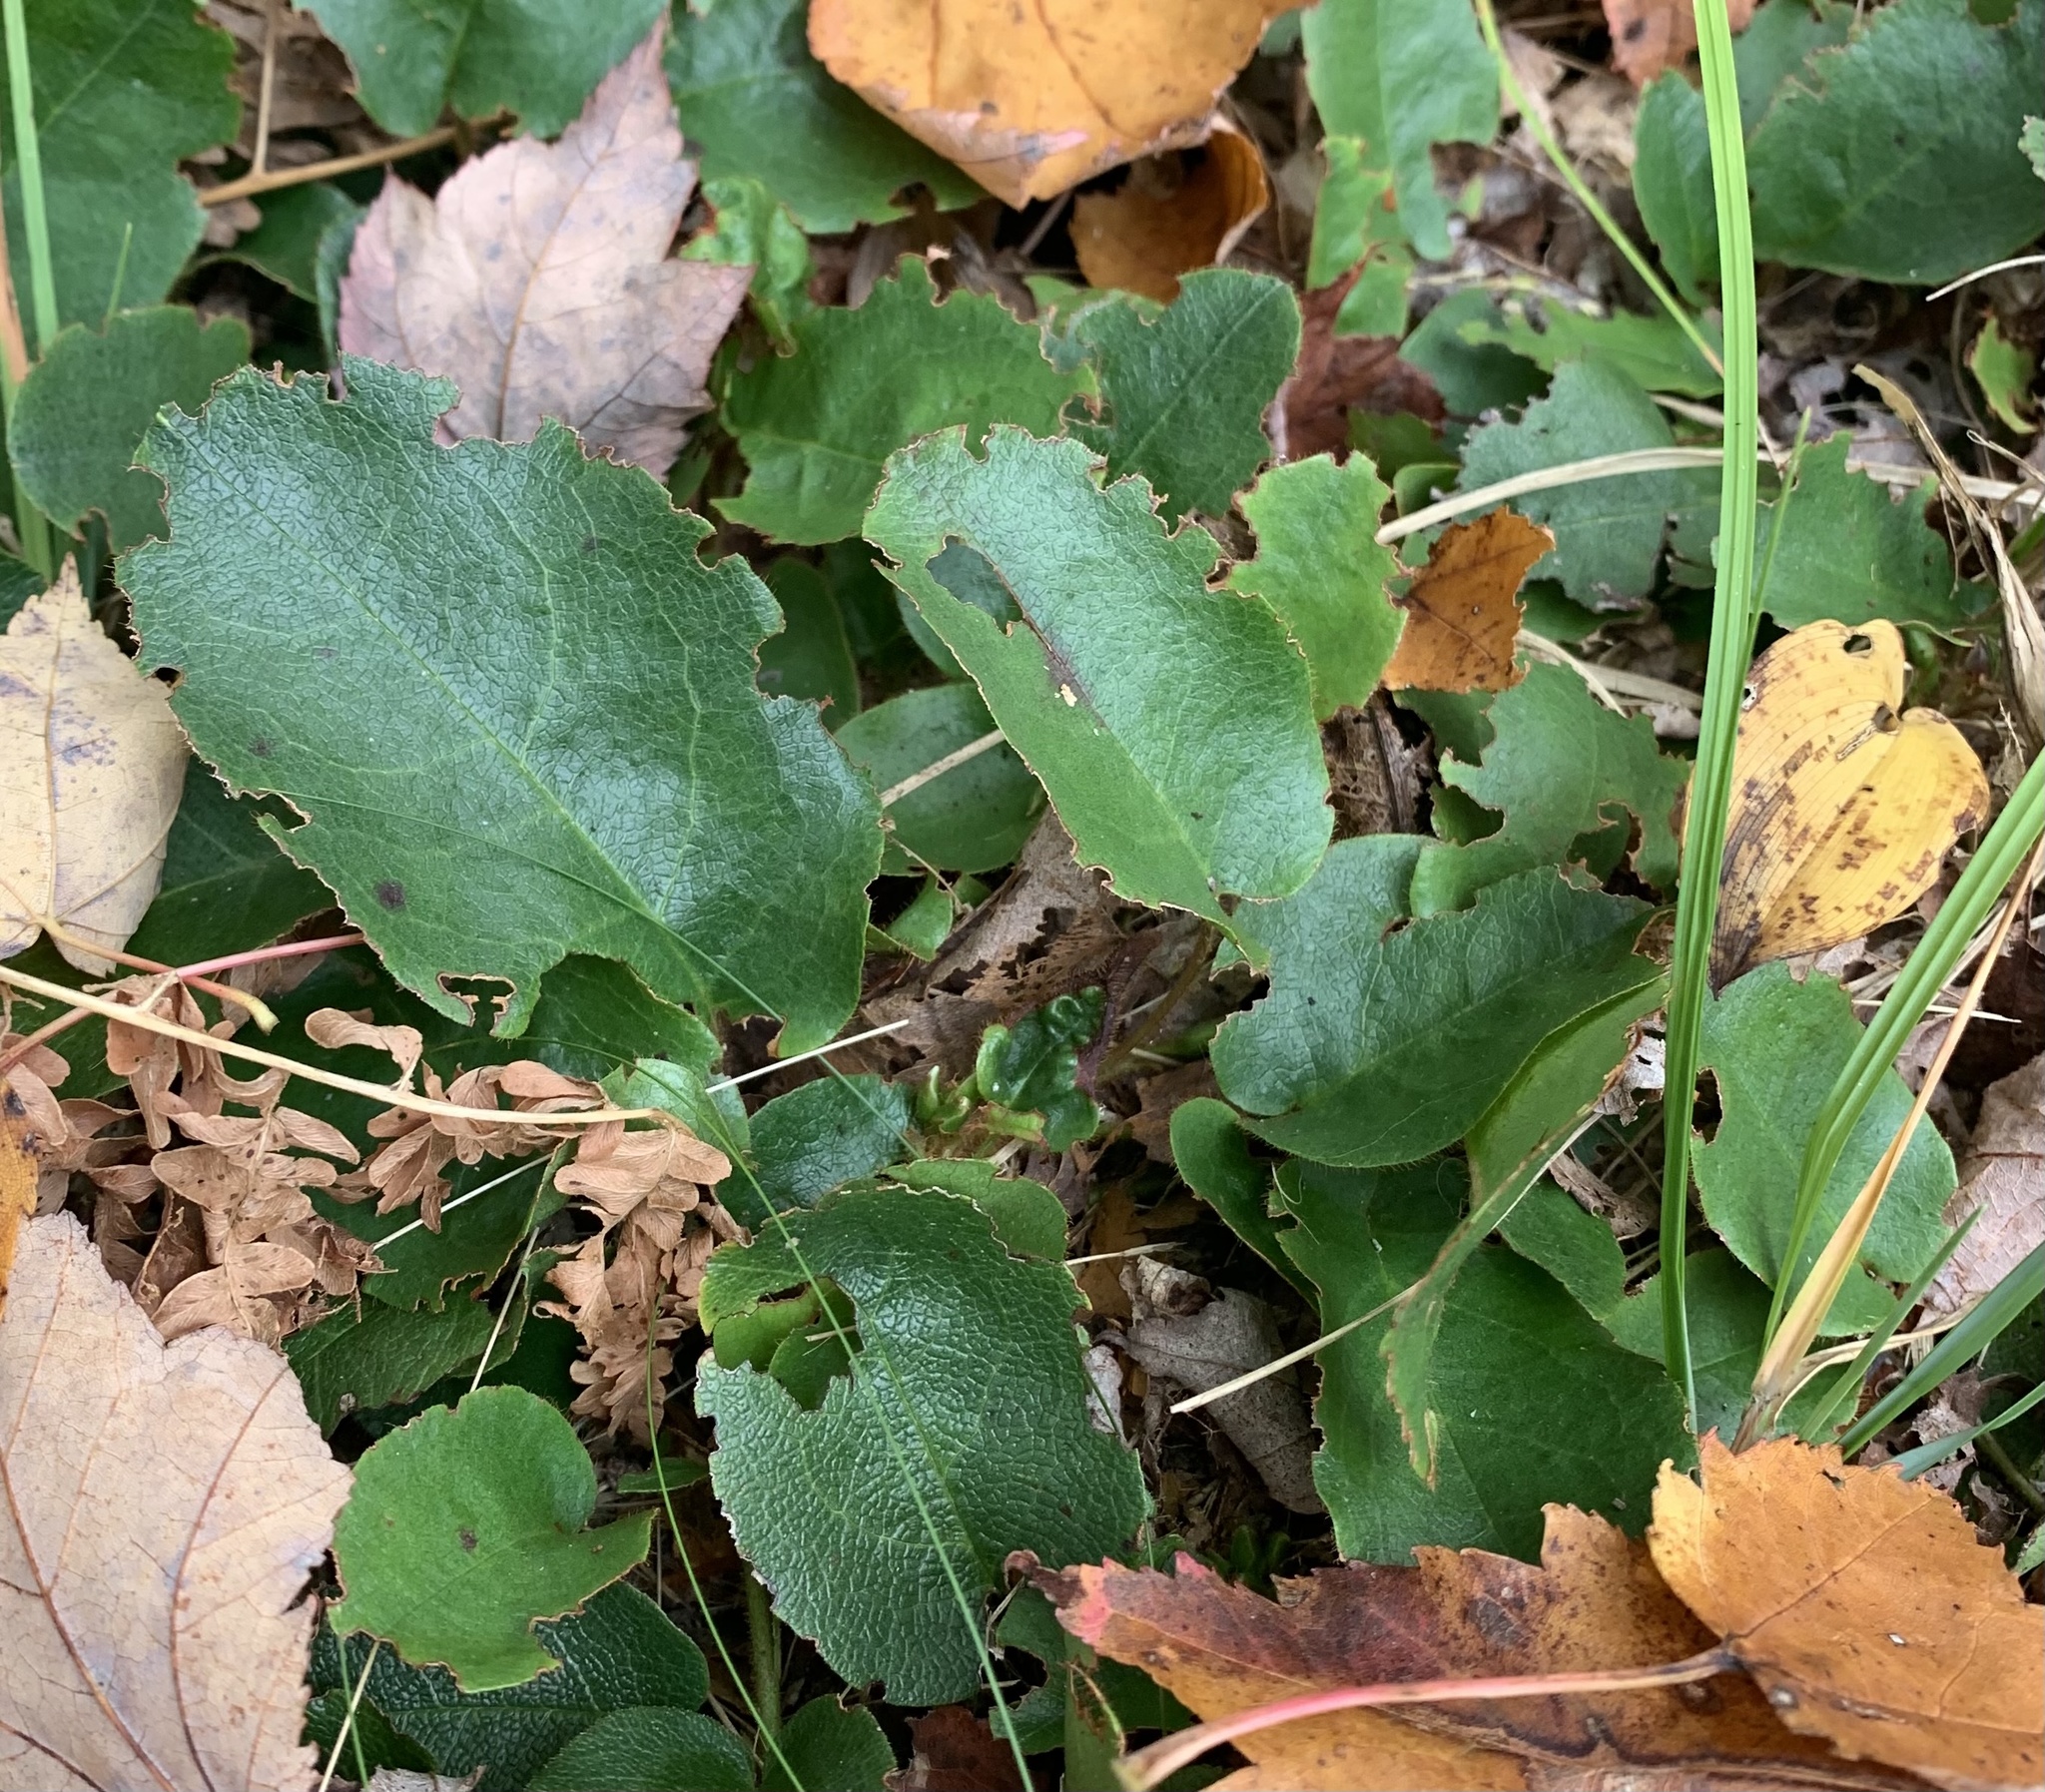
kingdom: Plantae
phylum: Tracheophyta
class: Magnoliopsida
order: Ericales
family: Ericaceae
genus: Epigaea
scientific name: Epigaea repens
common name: Gravelroot
